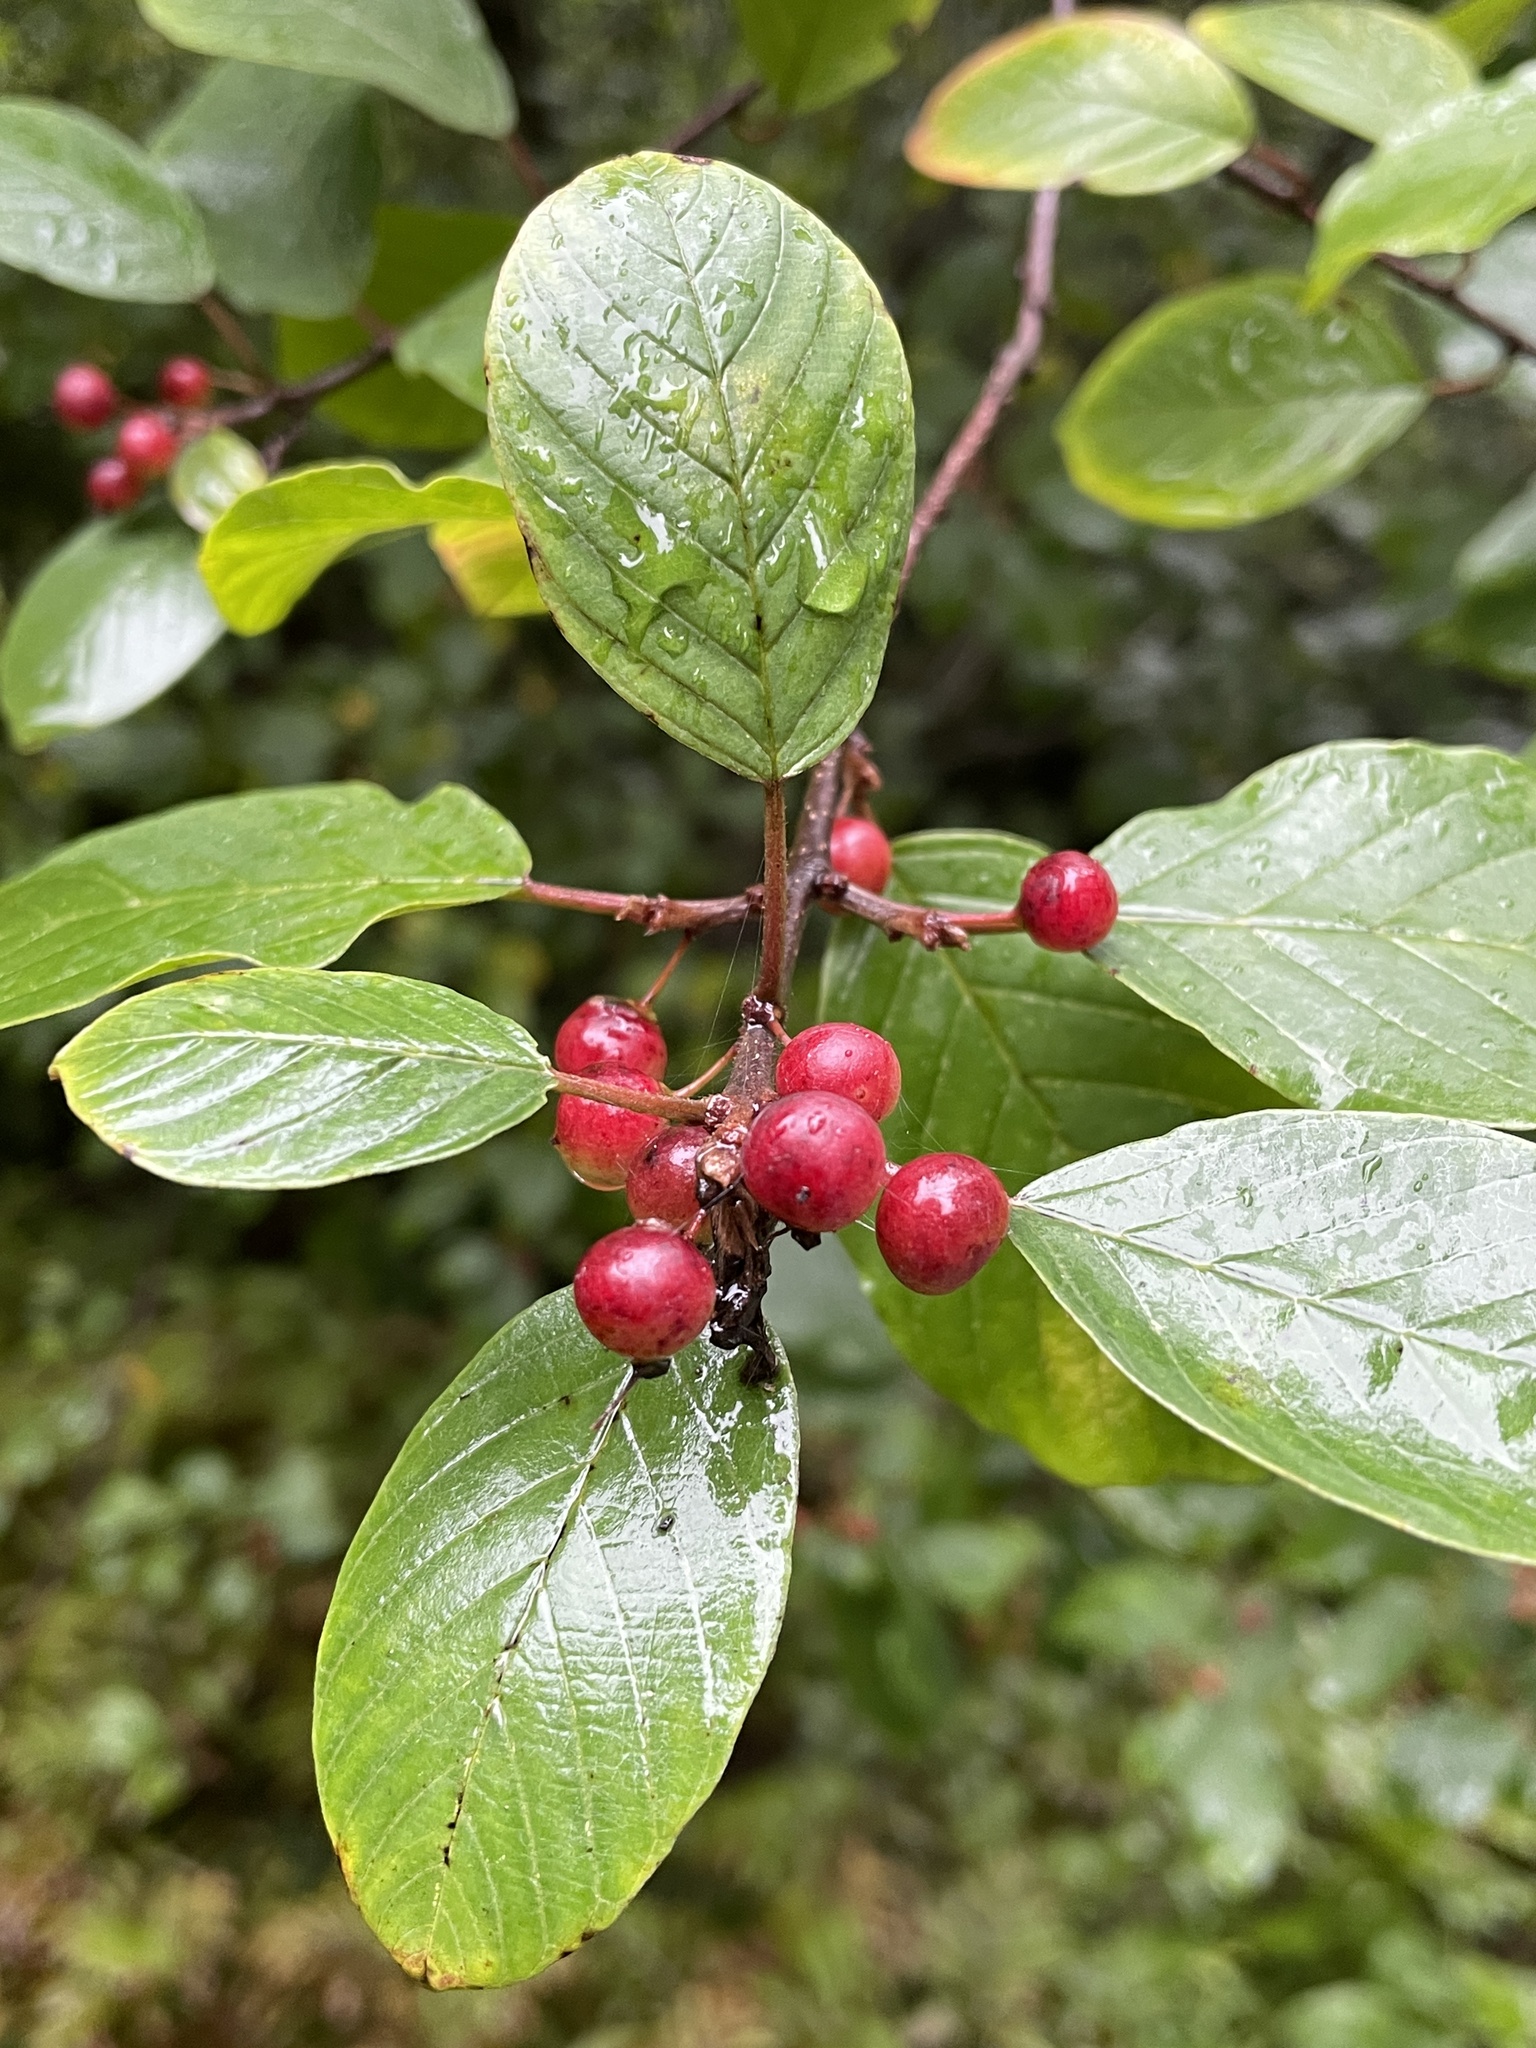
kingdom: Plantae
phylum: Tracheophyta
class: Magnoliopsida
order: Rosales
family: Rhamnaceae
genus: Frangula
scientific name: Frangula alnus
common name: Alder buckthorn
